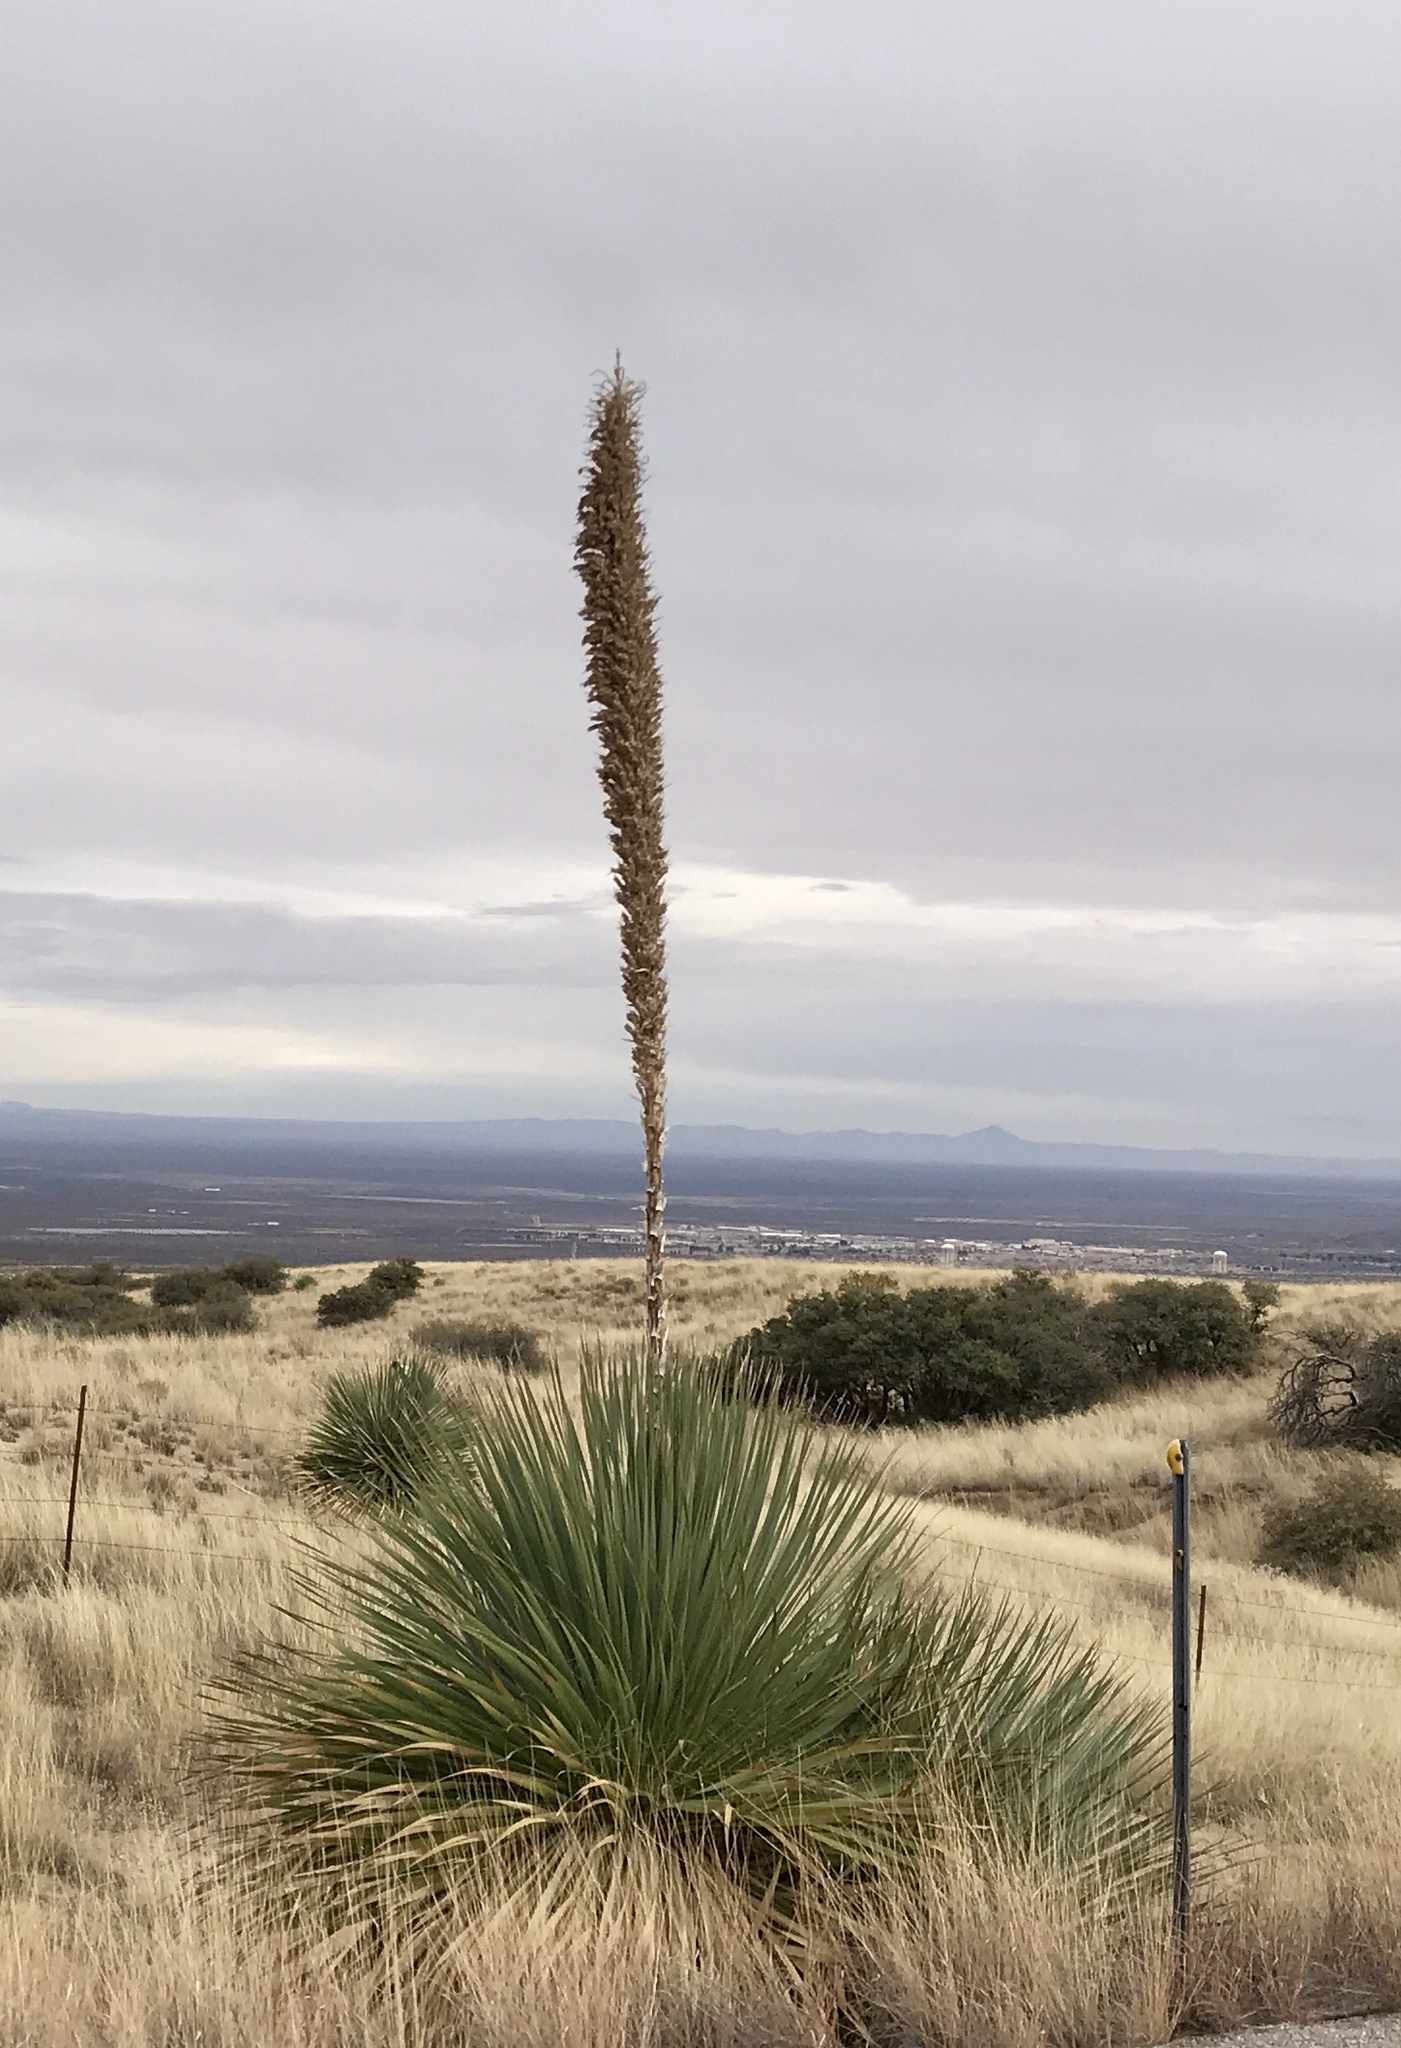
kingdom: Plantae
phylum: Tracheophyta
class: Liliopsida
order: Asparagales
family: Asparagaceae
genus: Dasylirion
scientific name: Dasylirion wheeleri
